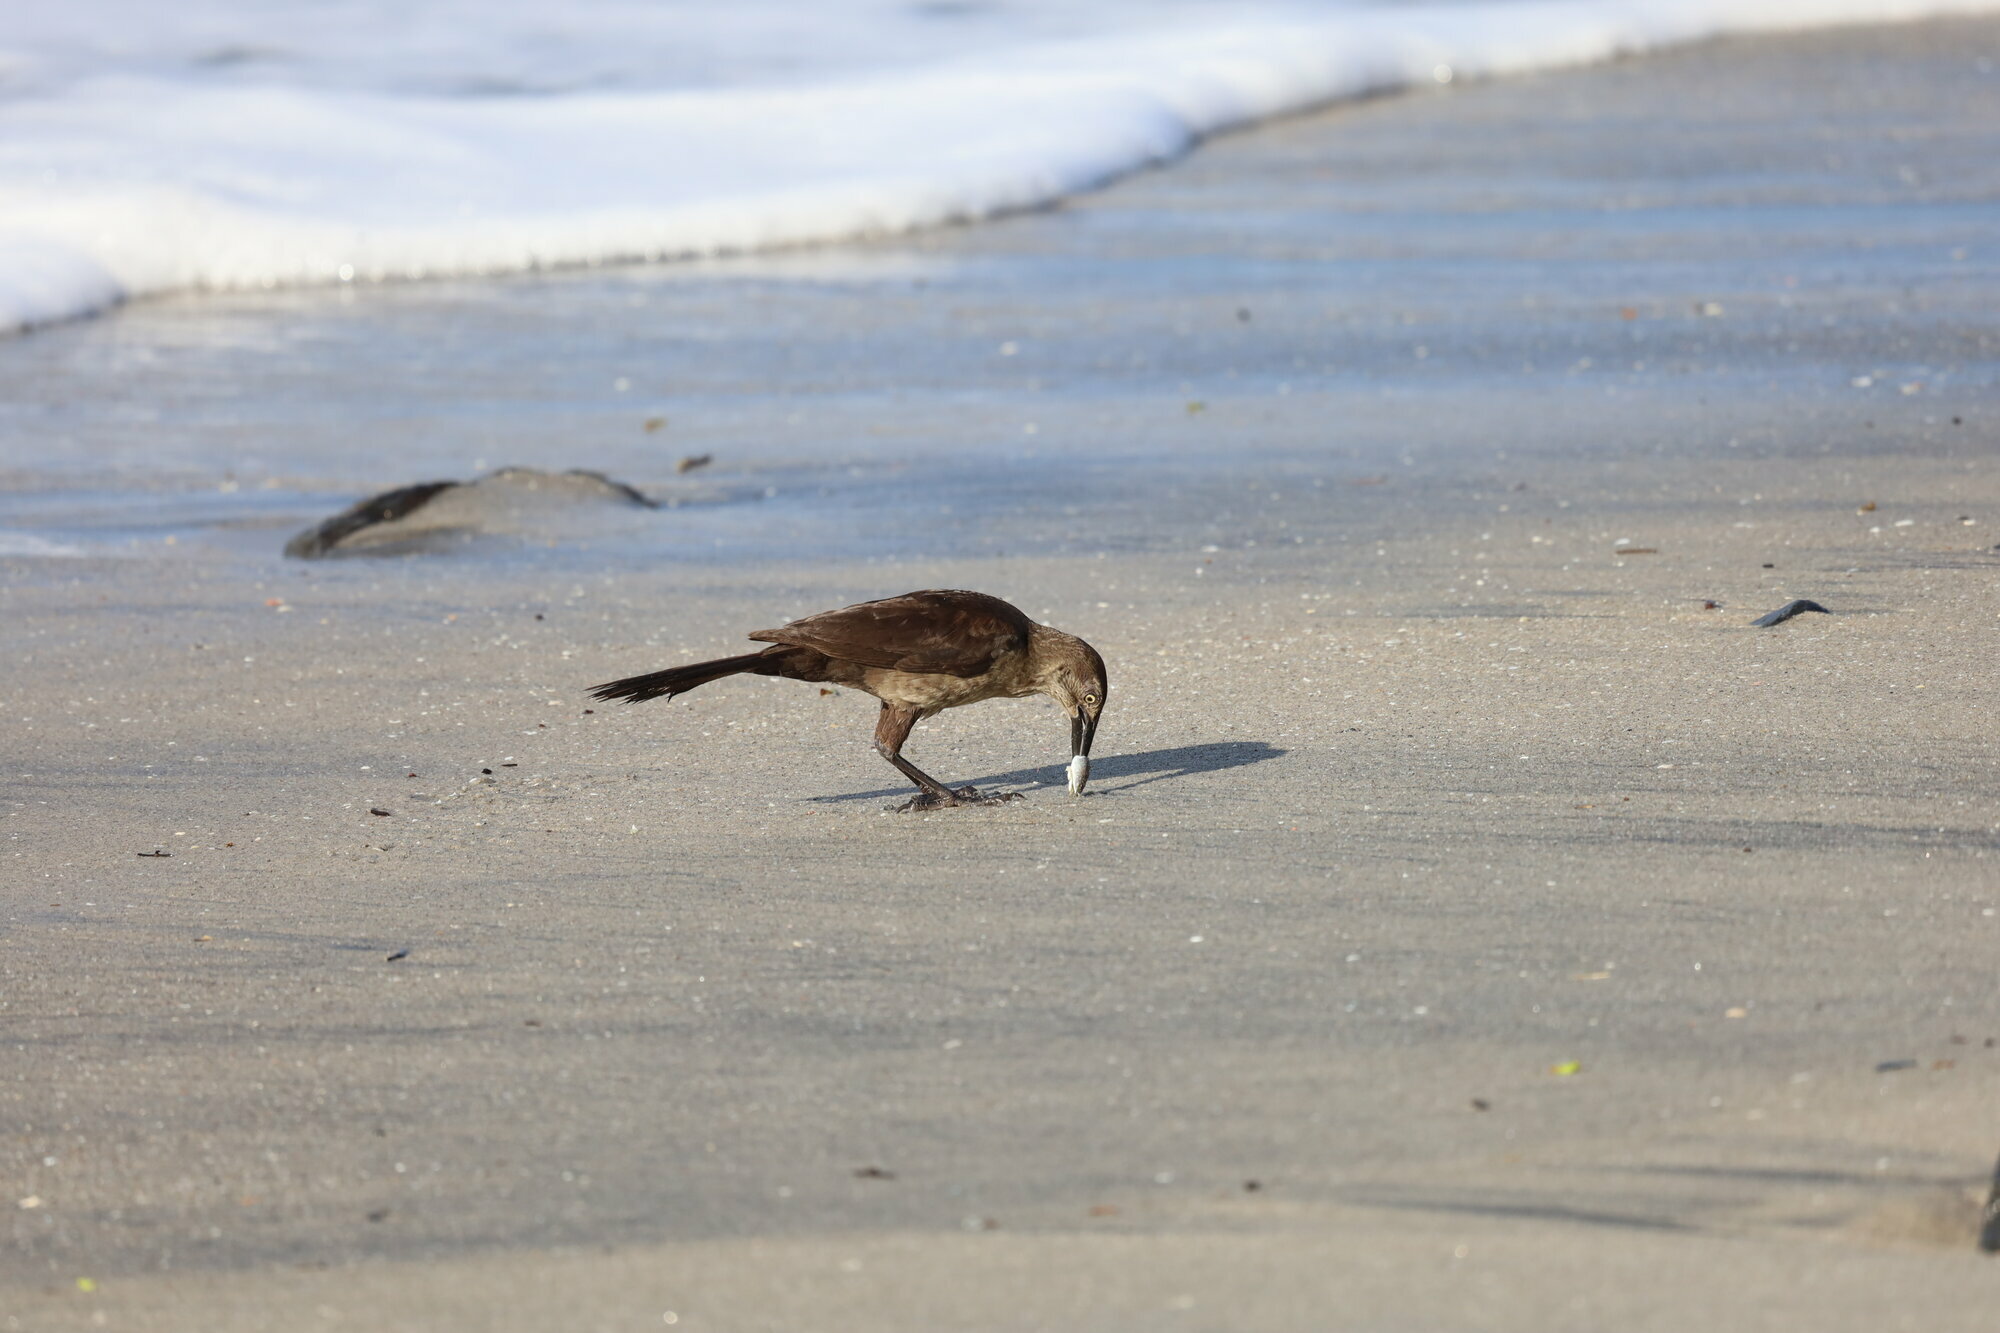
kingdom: Animalia
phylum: Chordata
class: Aves
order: Passeriformes
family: Icteridae
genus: Quiscalus
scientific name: Quiscalus mexicanus
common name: Great-tailed grackle
